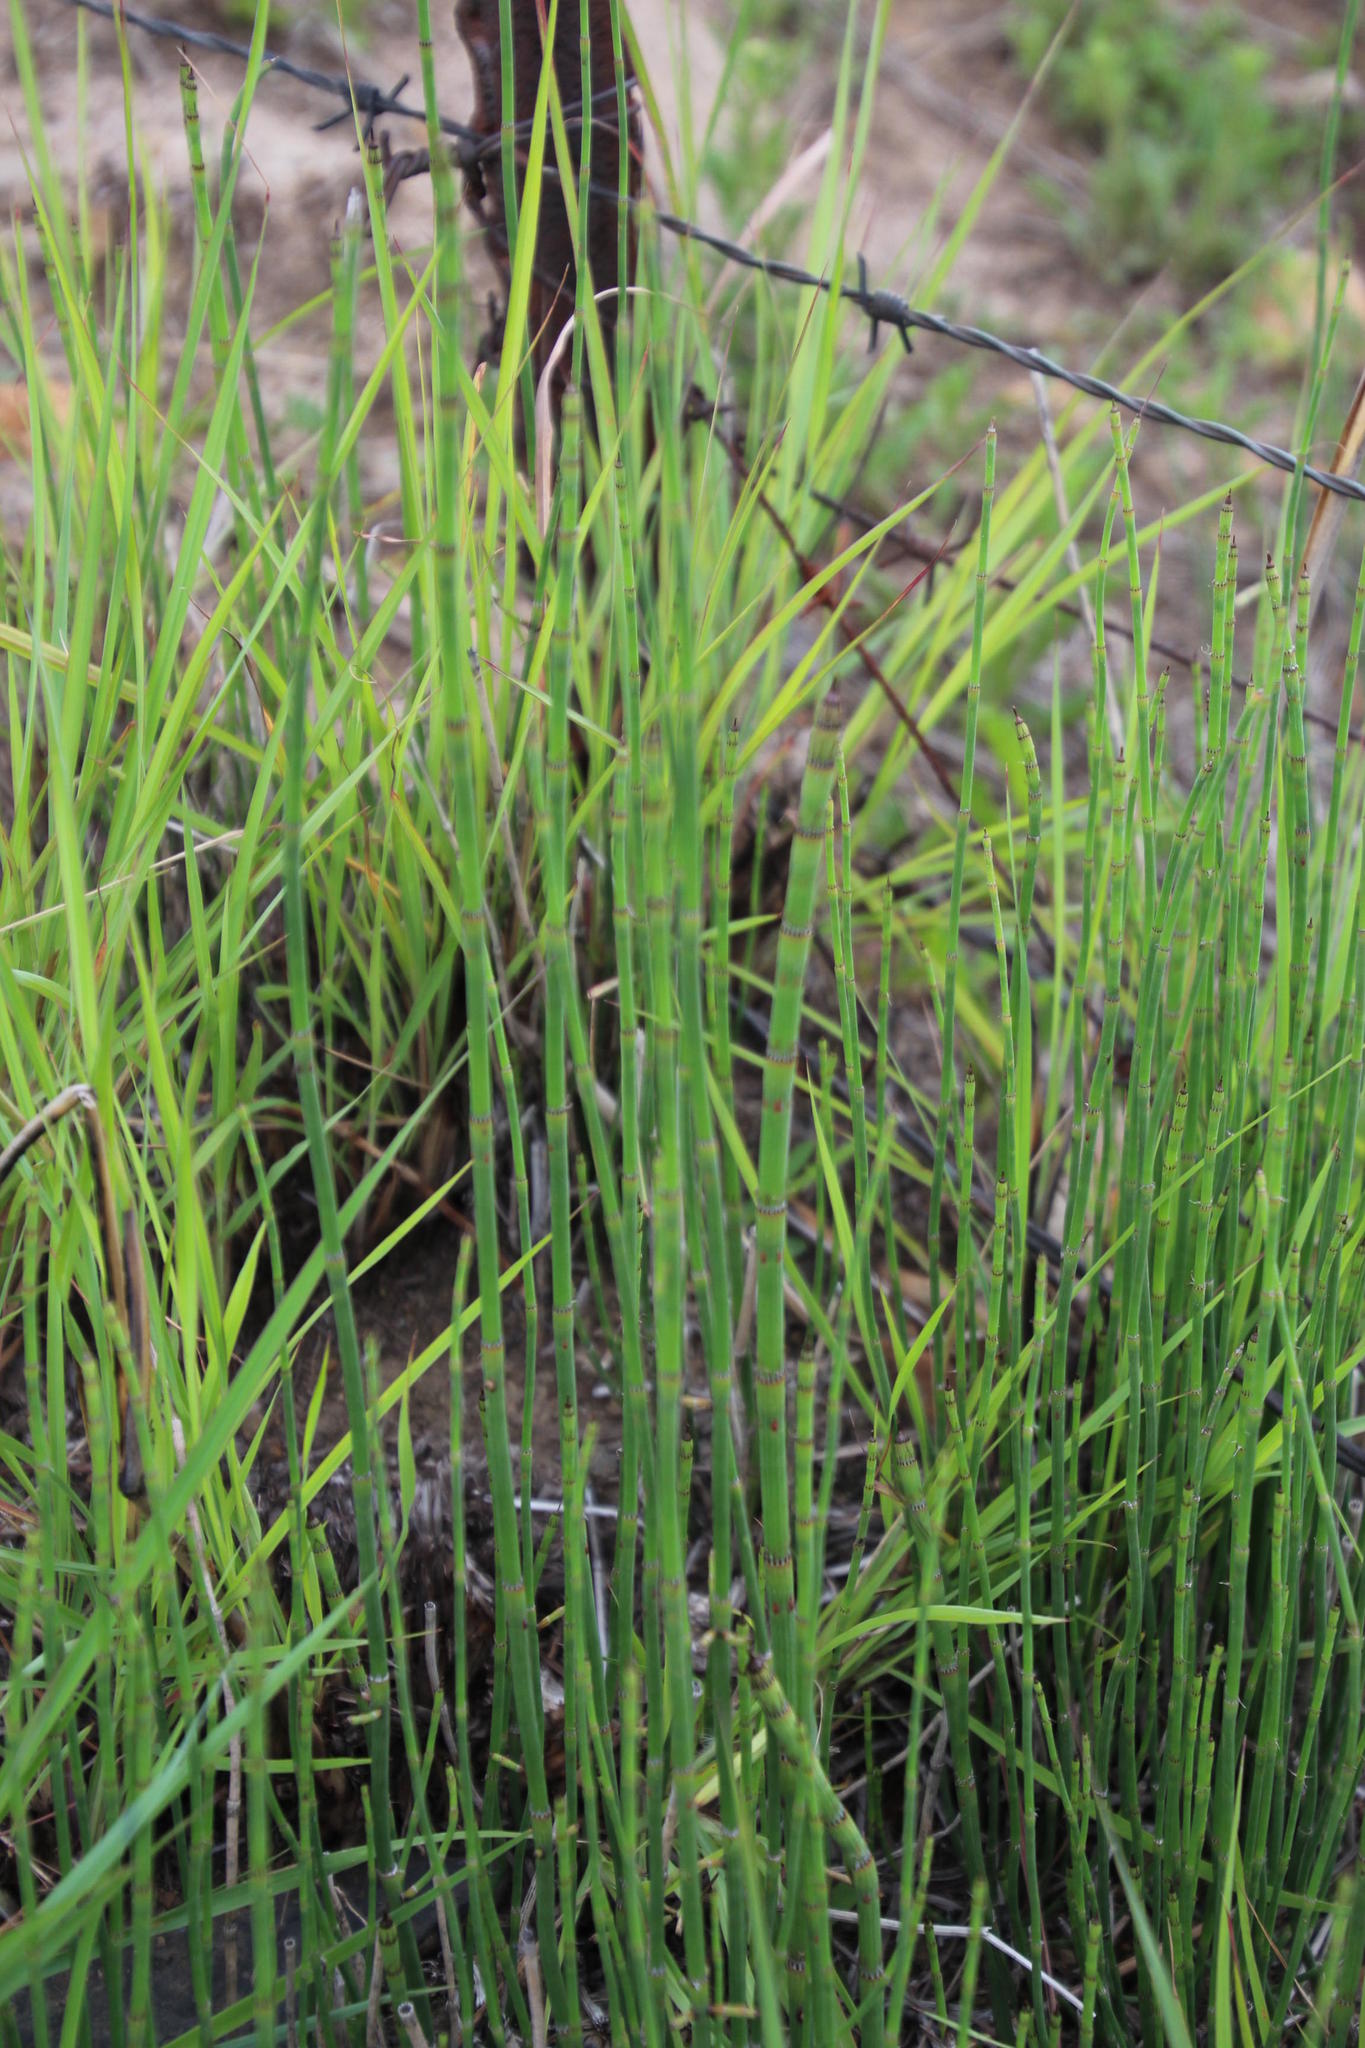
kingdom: Plantae
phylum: Tracheophyta
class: Polypodiopsida
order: Equisetales
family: Equisetaceae
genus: Equisetum
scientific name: Equisetum ramosissimum
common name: Branched horsetail
